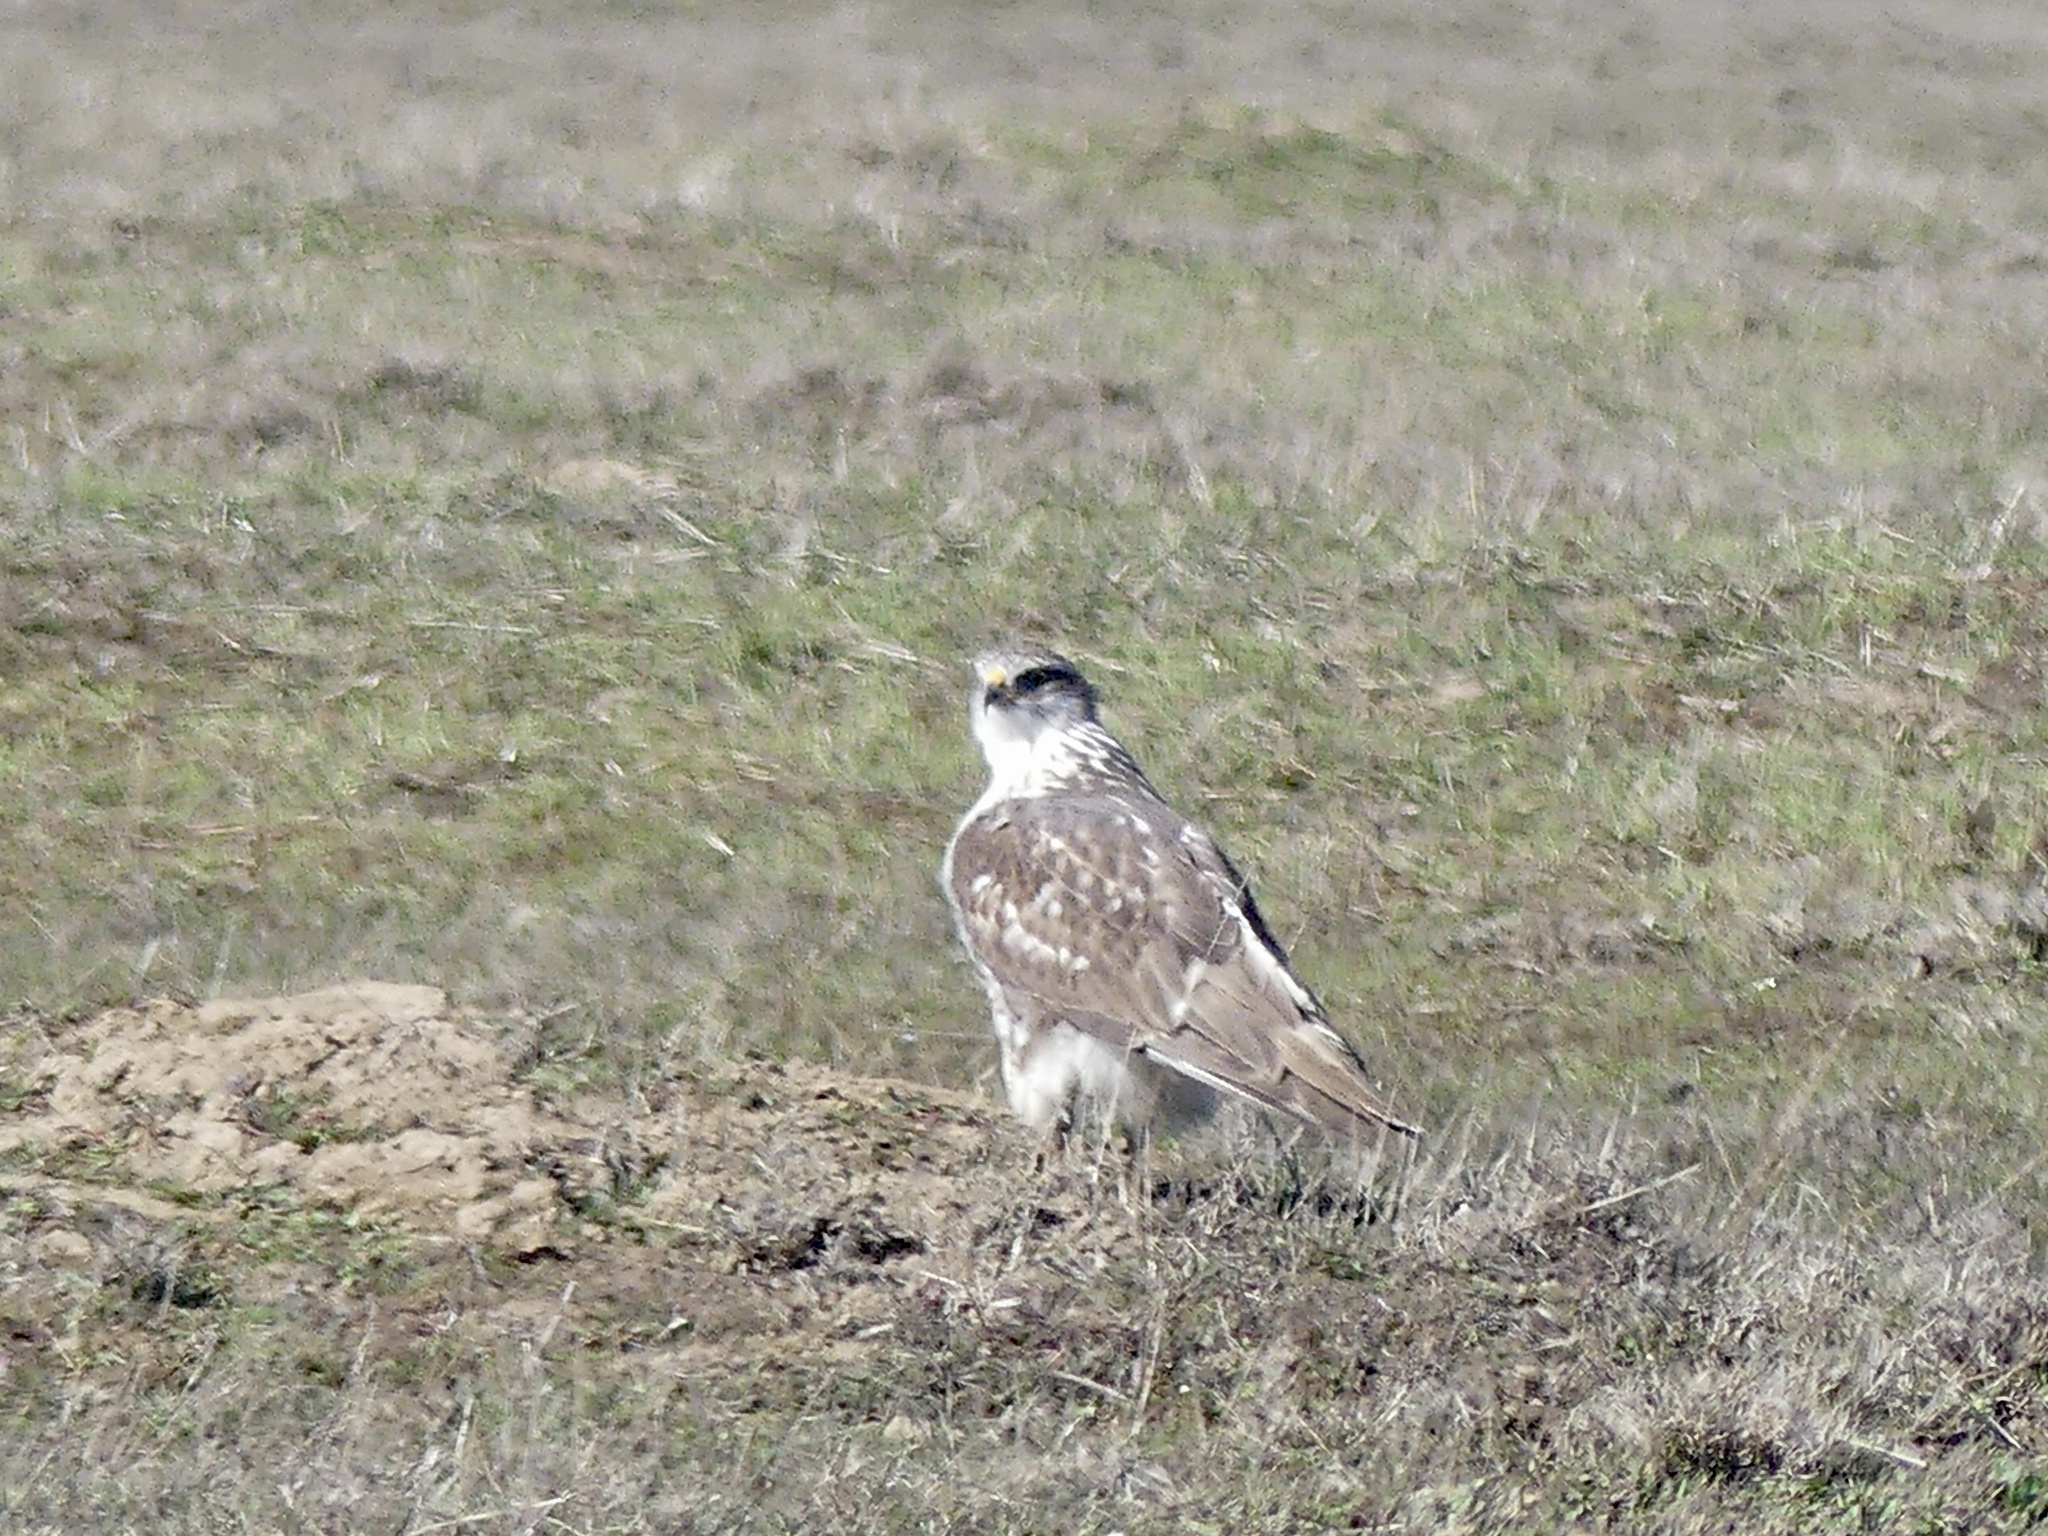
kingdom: Animalia
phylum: Chordata
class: Aves
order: Accipitriformes
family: Accipitridae
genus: Buteo
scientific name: Buteo regalis
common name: Ferruginous hawk
